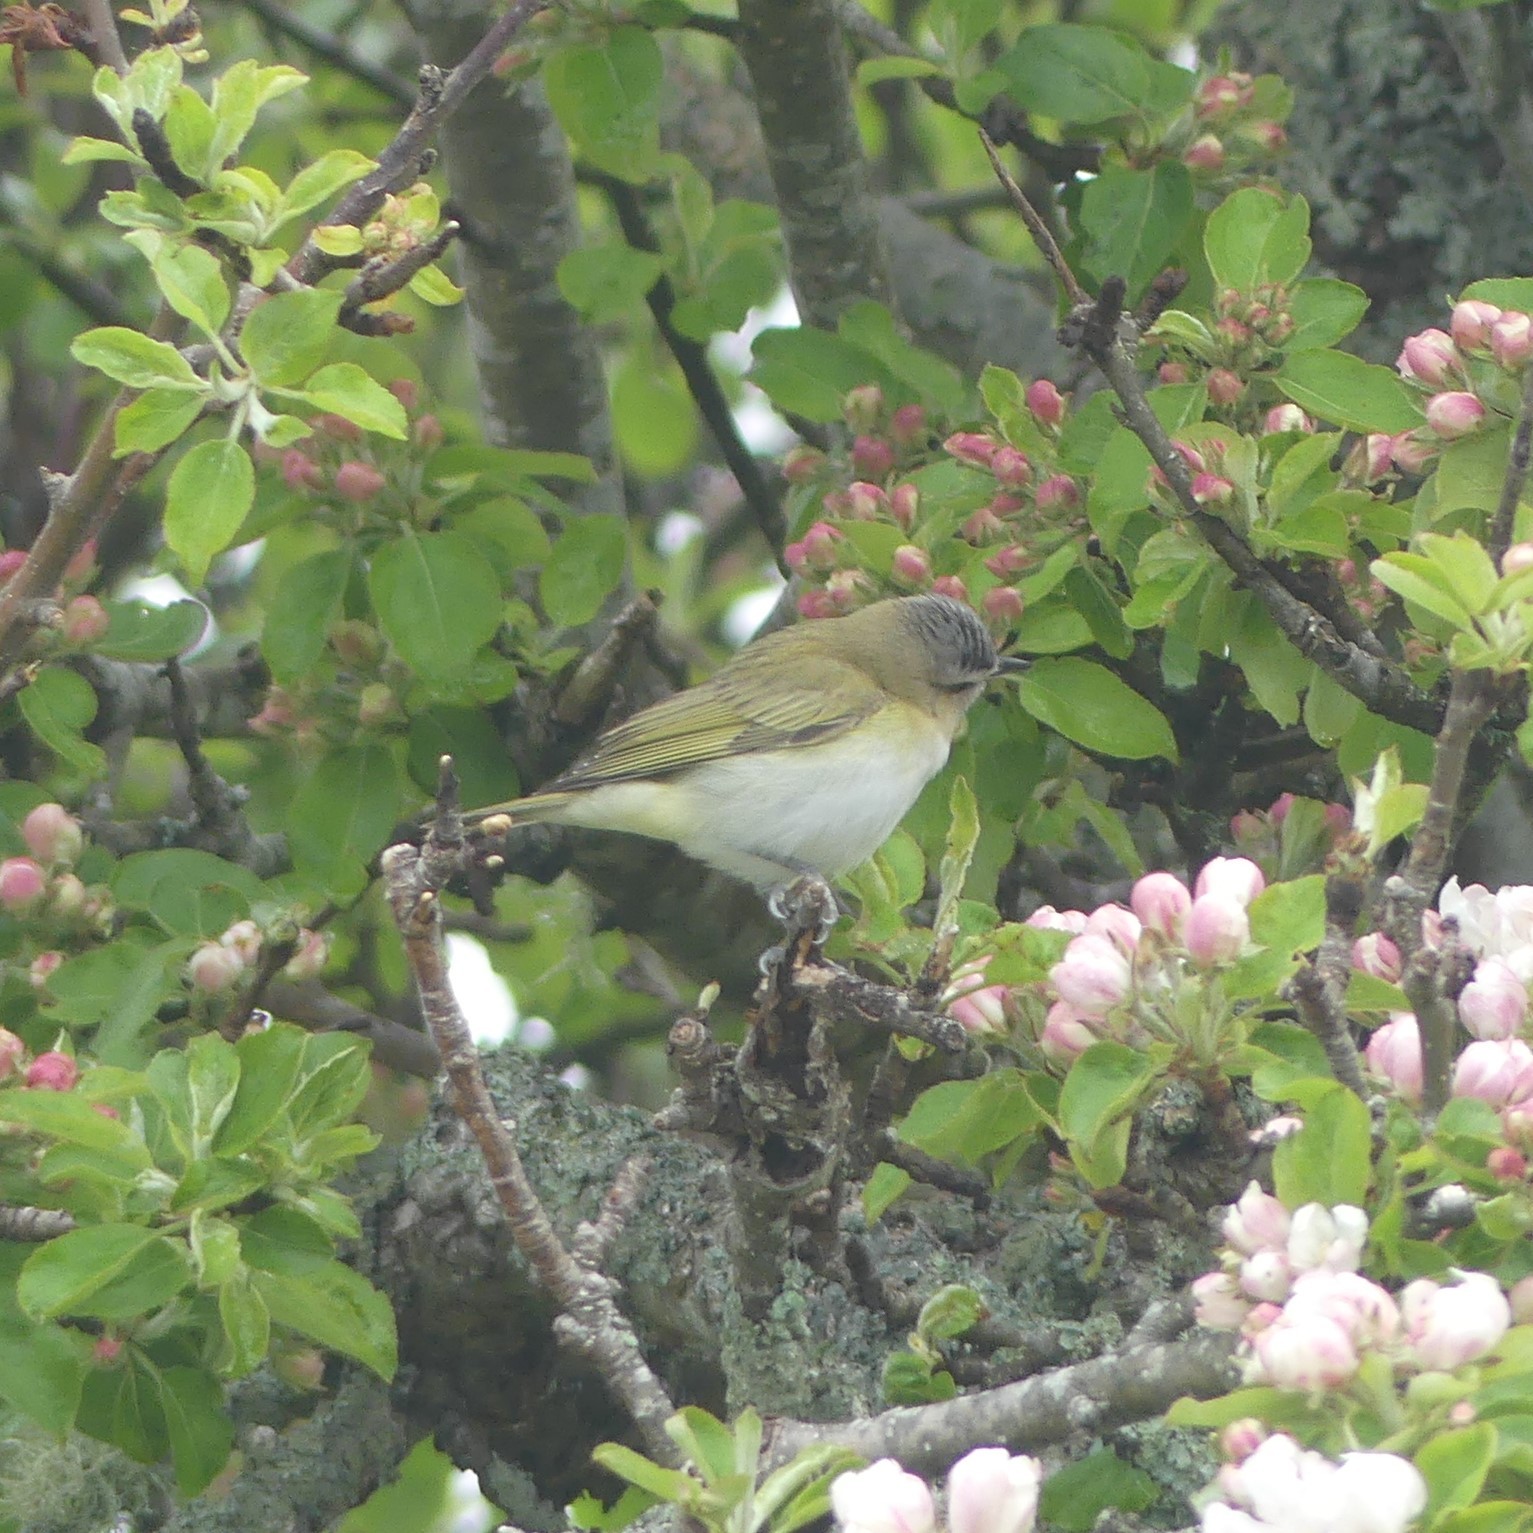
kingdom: Animalia
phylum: Chordata
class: Aves
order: Passeriformes
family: Vireonidae
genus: Vireo
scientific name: Vireo olivaceus
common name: Red-eyed vireo
